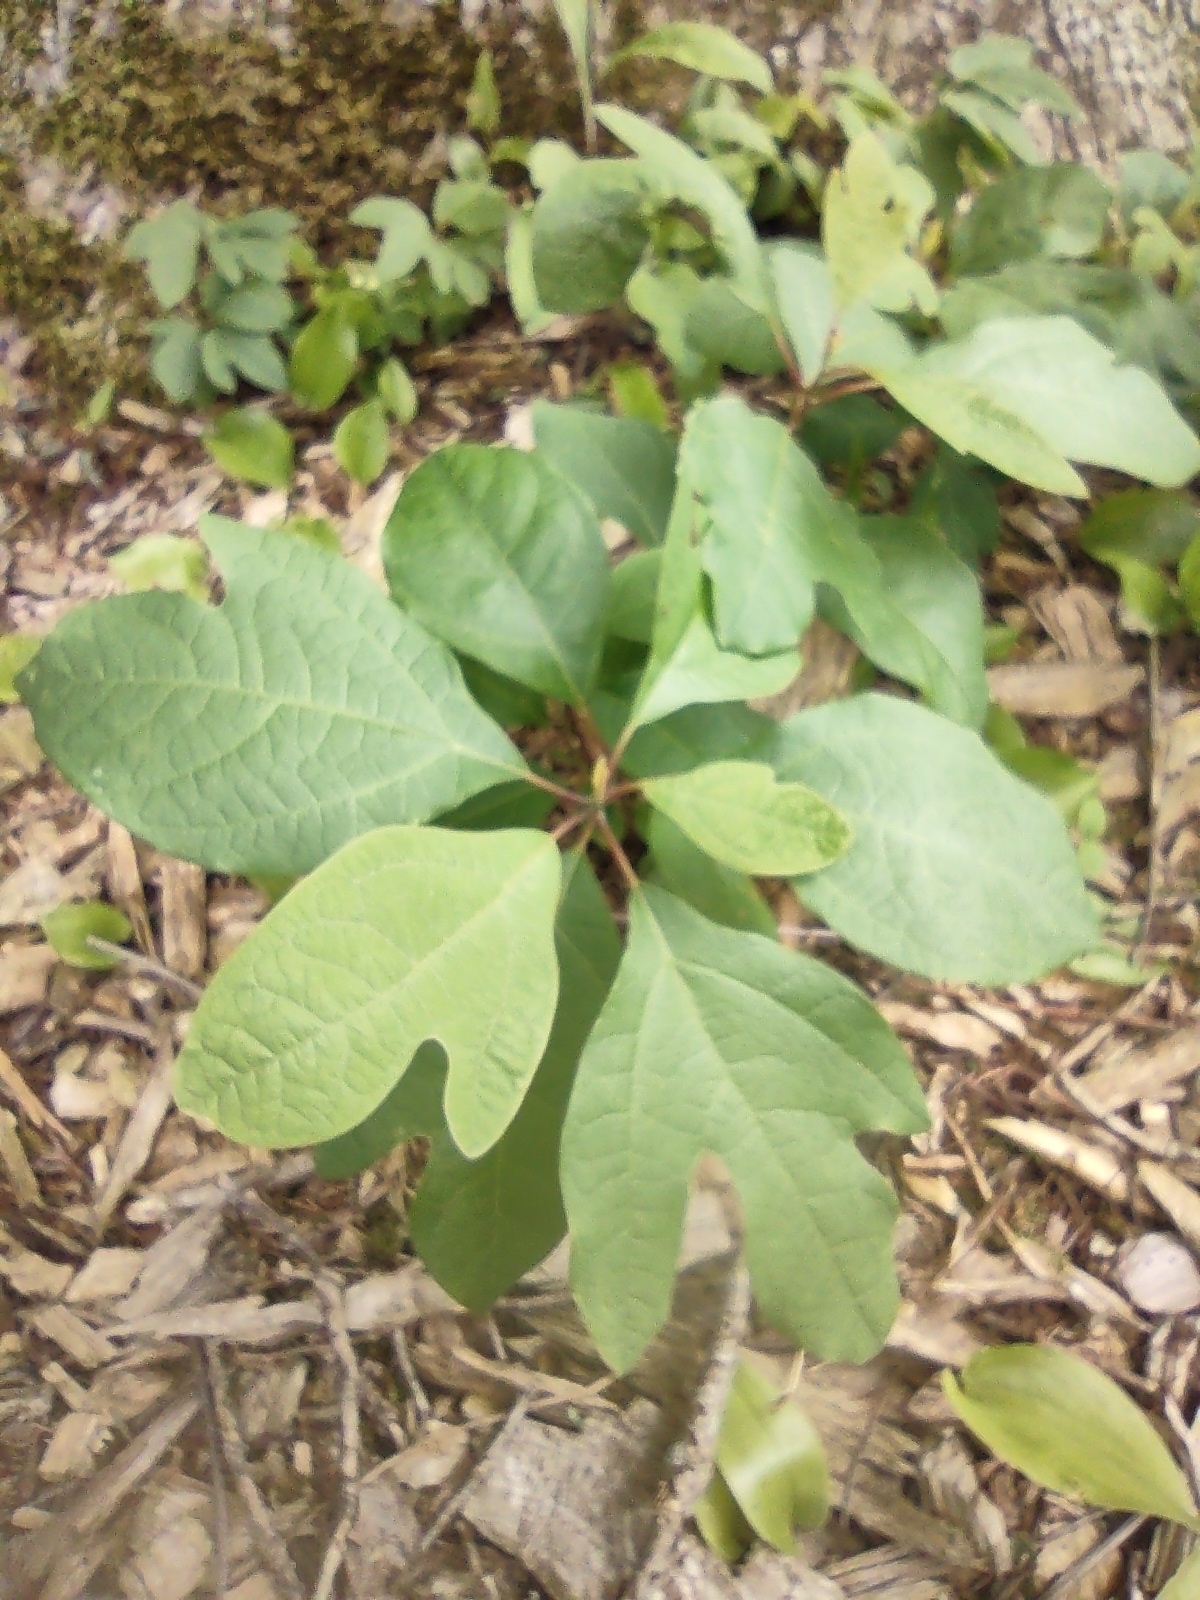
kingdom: Plantae
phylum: Tracheophyta
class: Magnoliopsida
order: Laurales
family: Lauraceae
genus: Sassafras
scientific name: Sassafras albidum
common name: Sassafras
